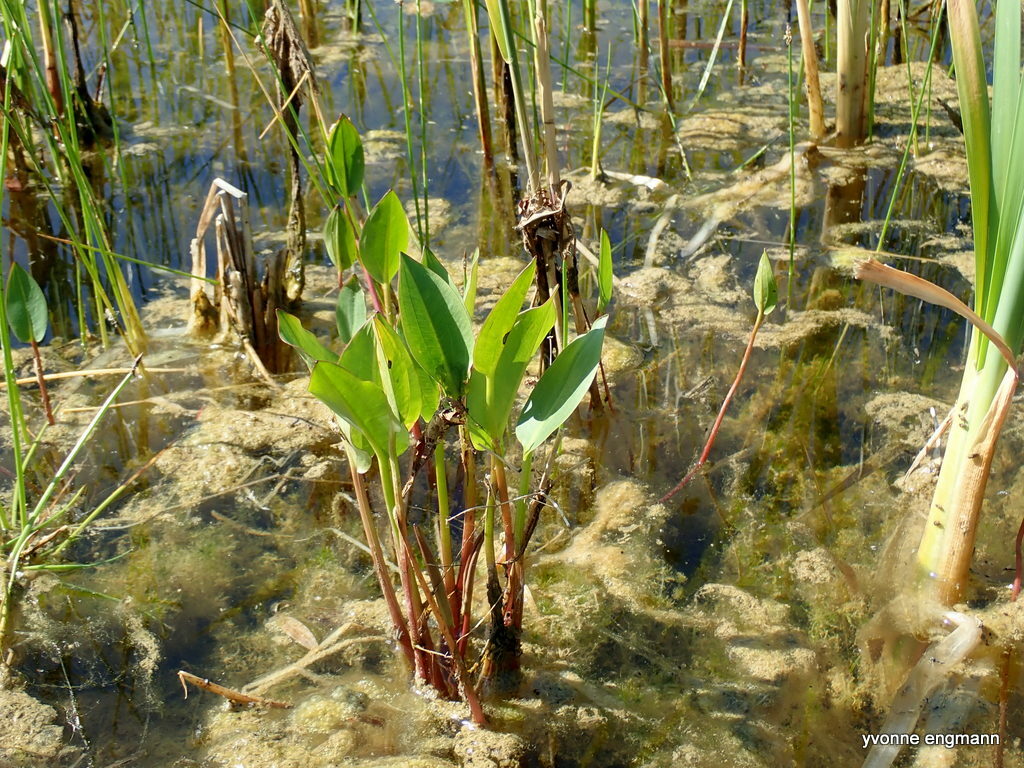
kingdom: Plantae
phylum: Tracheophyta
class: Liliopsida
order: Alismatales
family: Alismataceae
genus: Alisma
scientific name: Alisma plantago-aquatica
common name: Water-plantain
